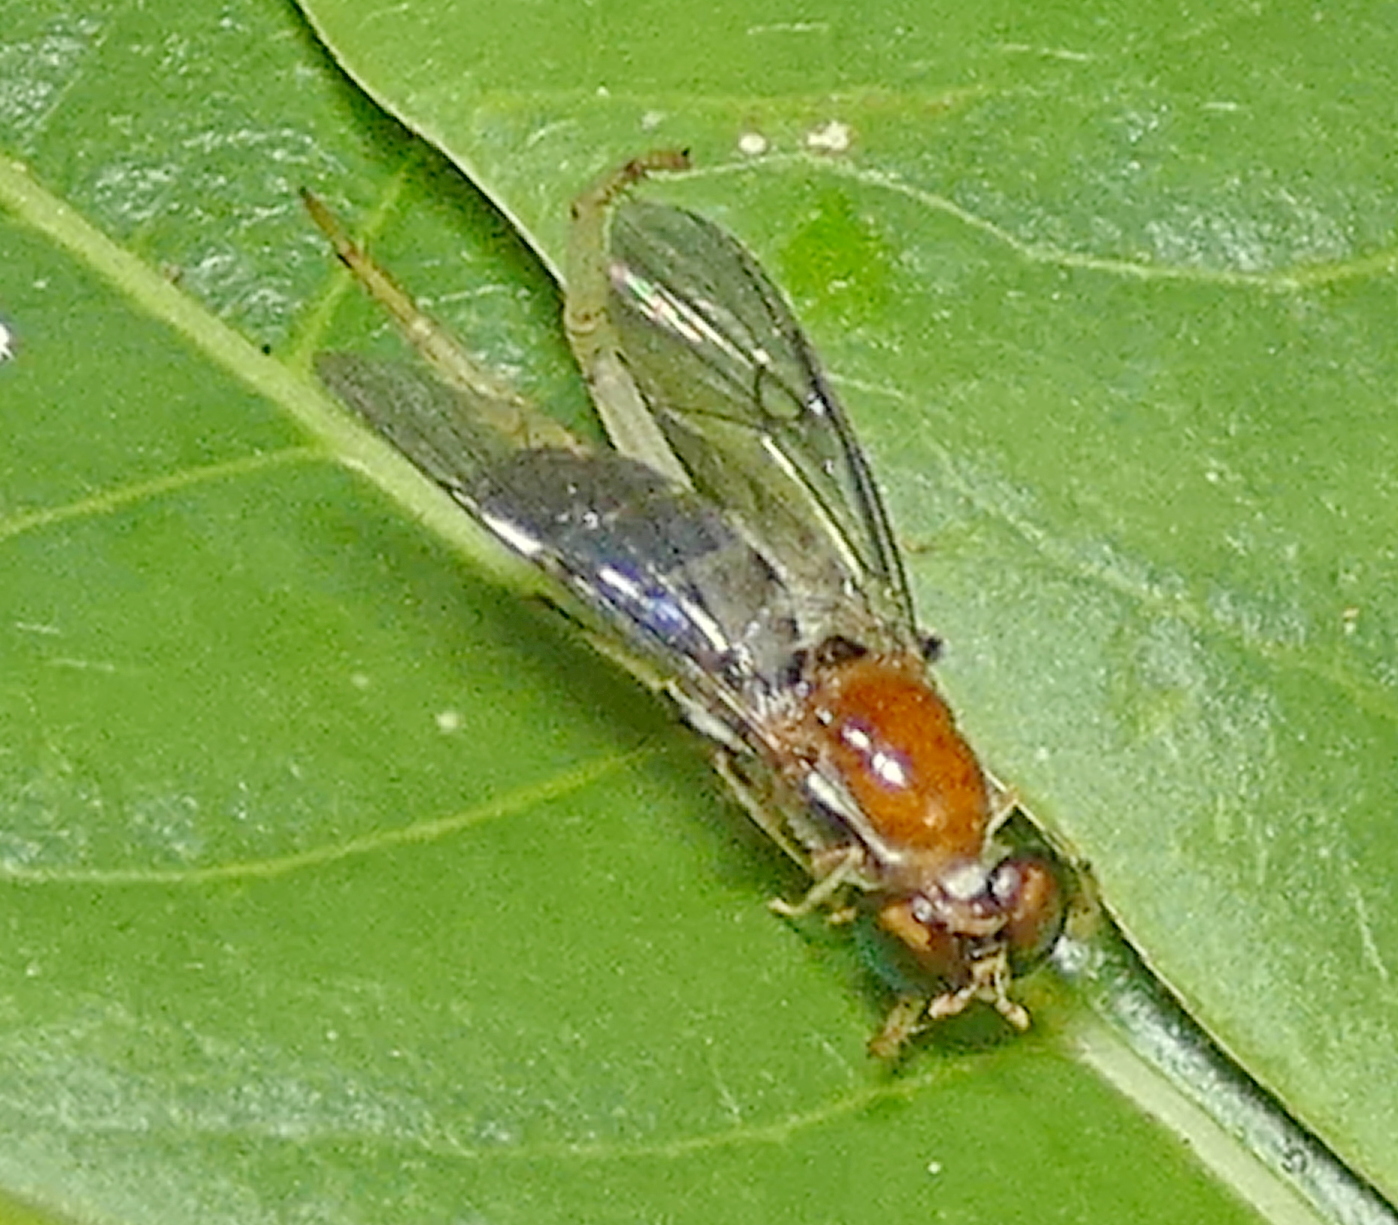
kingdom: Animalia
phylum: Arthropoda
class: Insecta
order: Diptera
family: Stratiomyidae
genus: Sargus
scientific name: Sargus thoracicus
